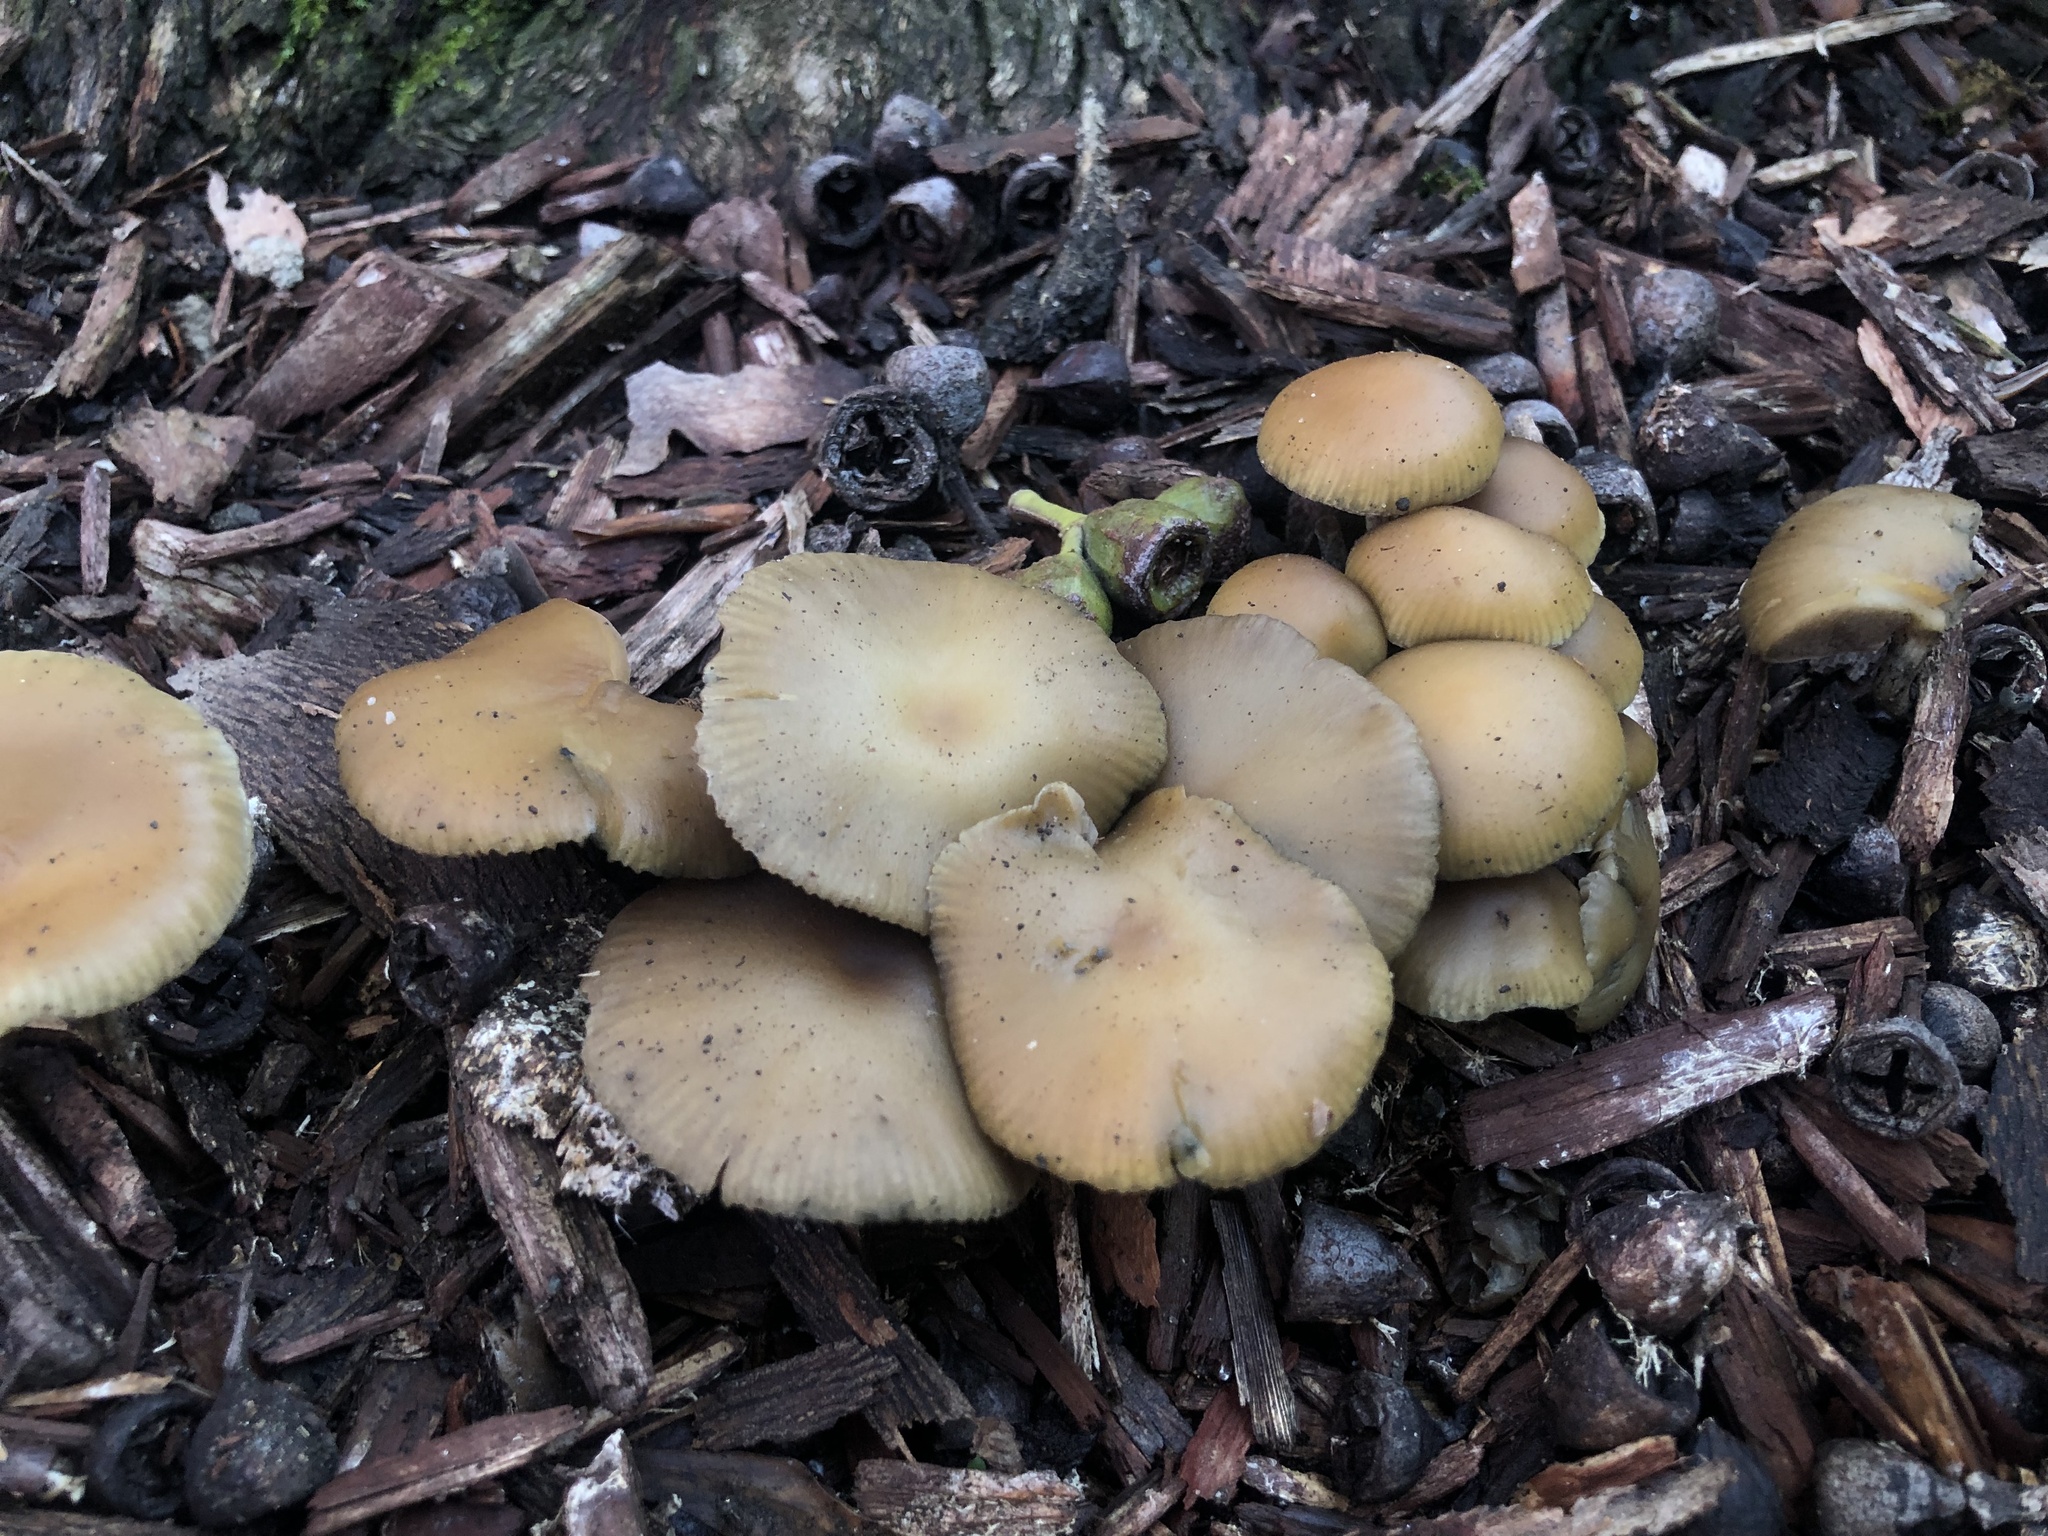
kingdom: Fungi
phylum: Basidiomycota
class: Agaricomycetes
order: Agaricales
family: Hymenogastraceae
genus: Psilocybe
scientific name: Psilocybe allenii
